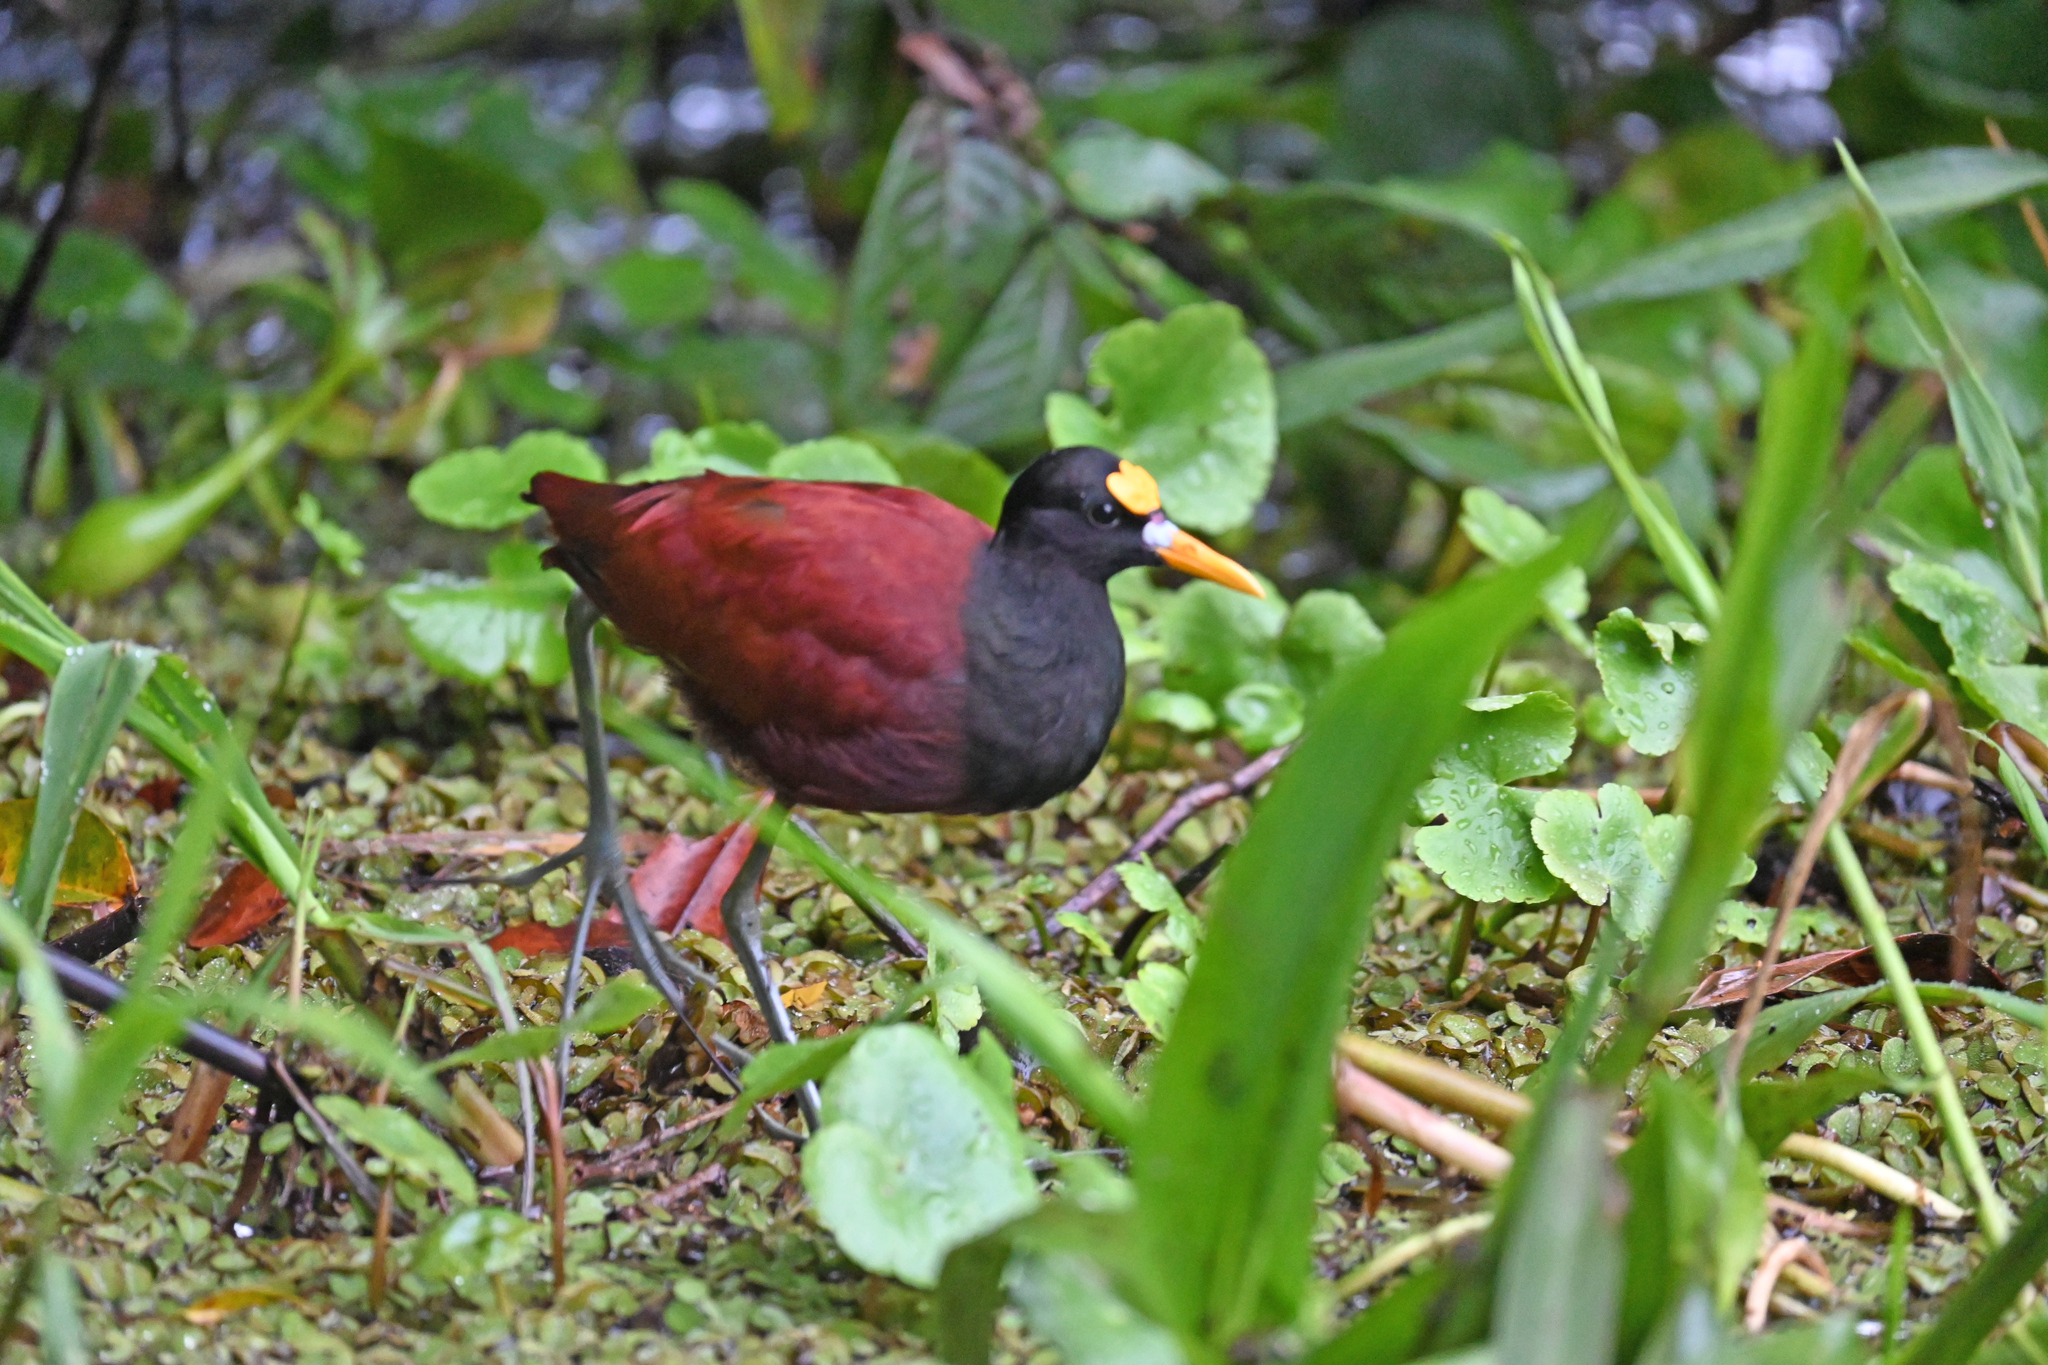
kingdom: Animalia
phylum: Chordata
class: Aves
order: Charadriiformes
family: Jacanidae
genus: Jacana
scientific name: Jacana spinosa
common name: Northern jacana
